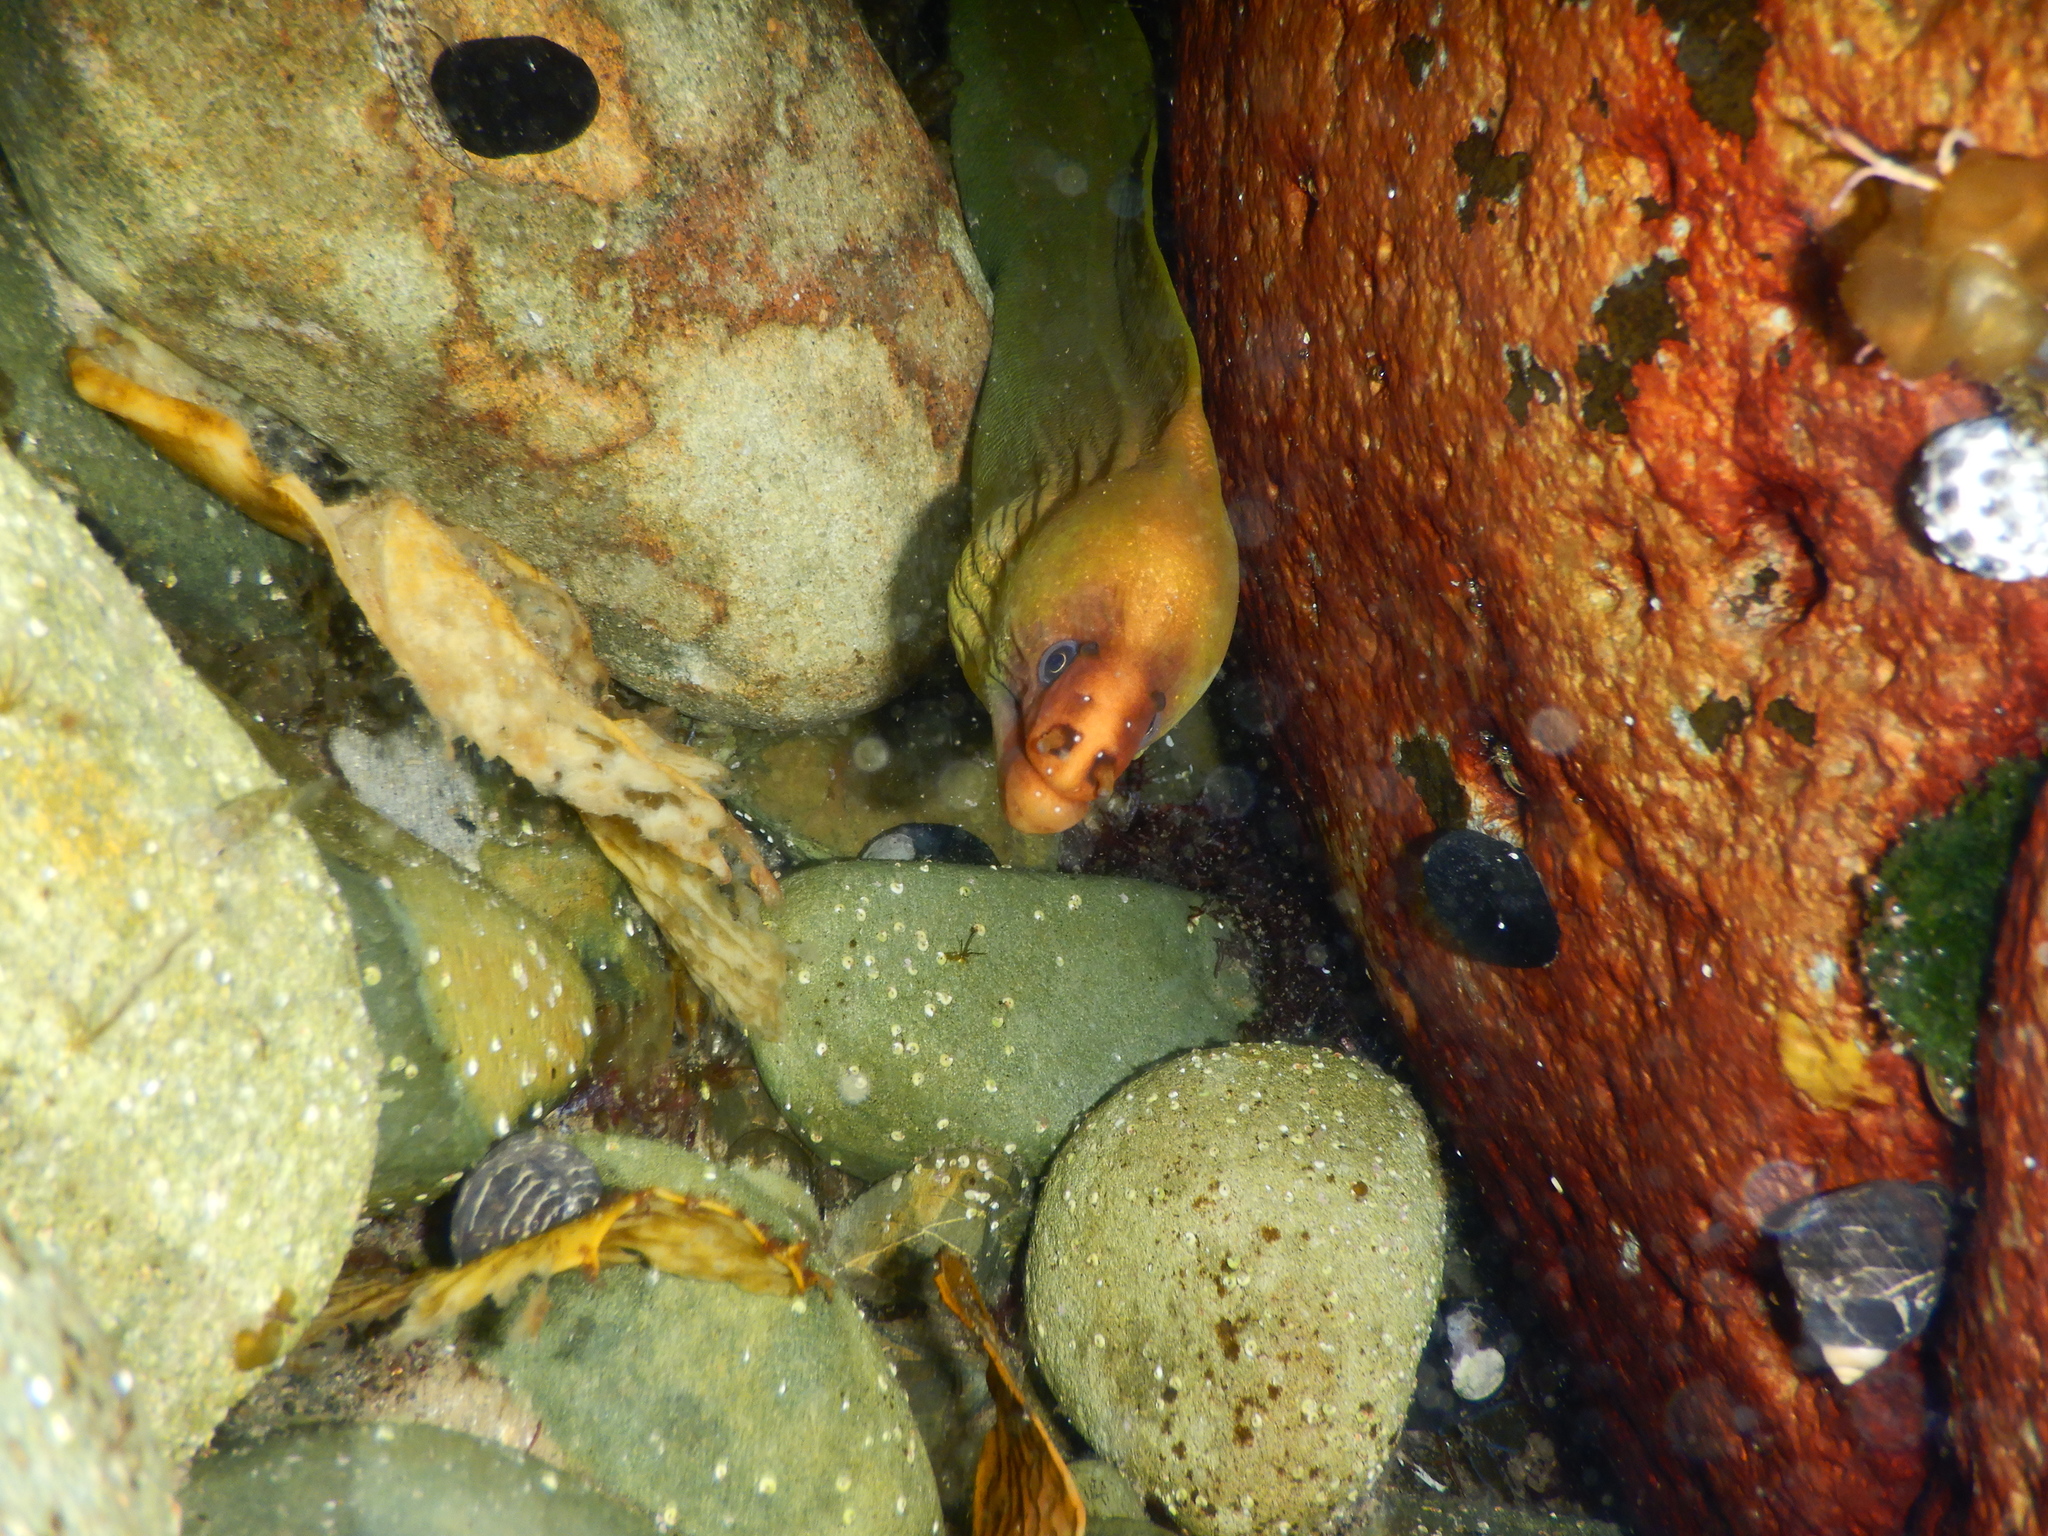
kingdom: Animalia
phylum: Chordata
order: Anguilliformes
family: Muraenidae
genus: Gymnothorax
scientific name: Gymnothorax prasinus
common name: Yellow moray
